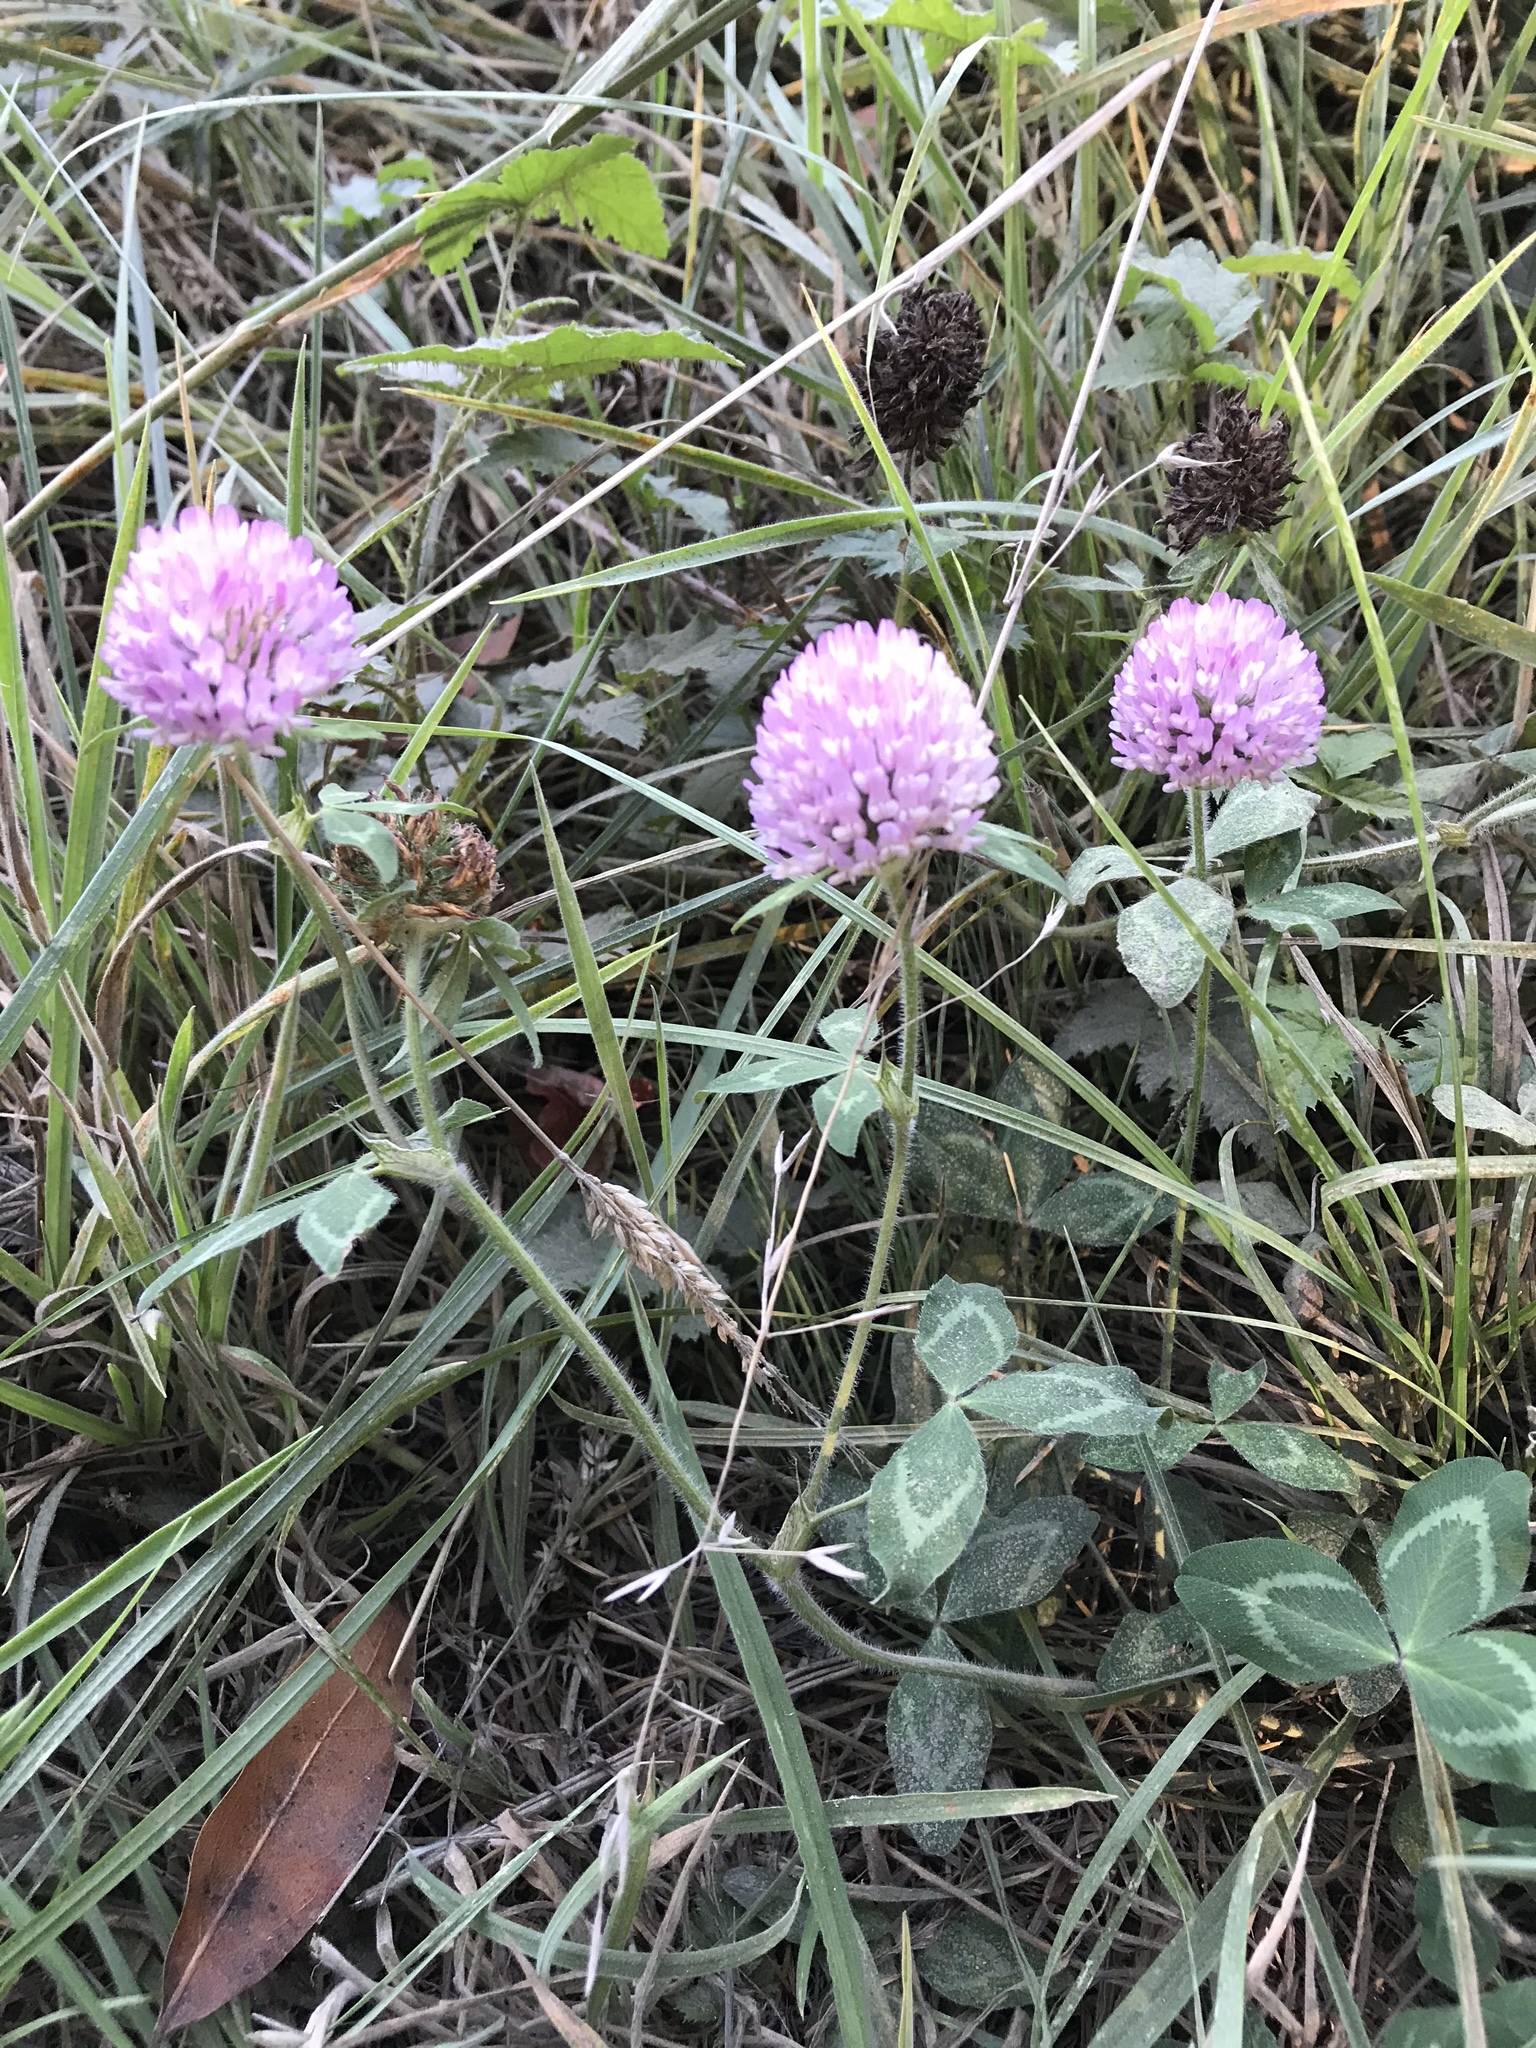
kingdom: Plantae
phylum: Tracheophyta
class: Magnoliopsida
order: Fabales
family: Fabaceae
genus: Trifolium
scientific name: Trifolium pratense
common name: Red clover
